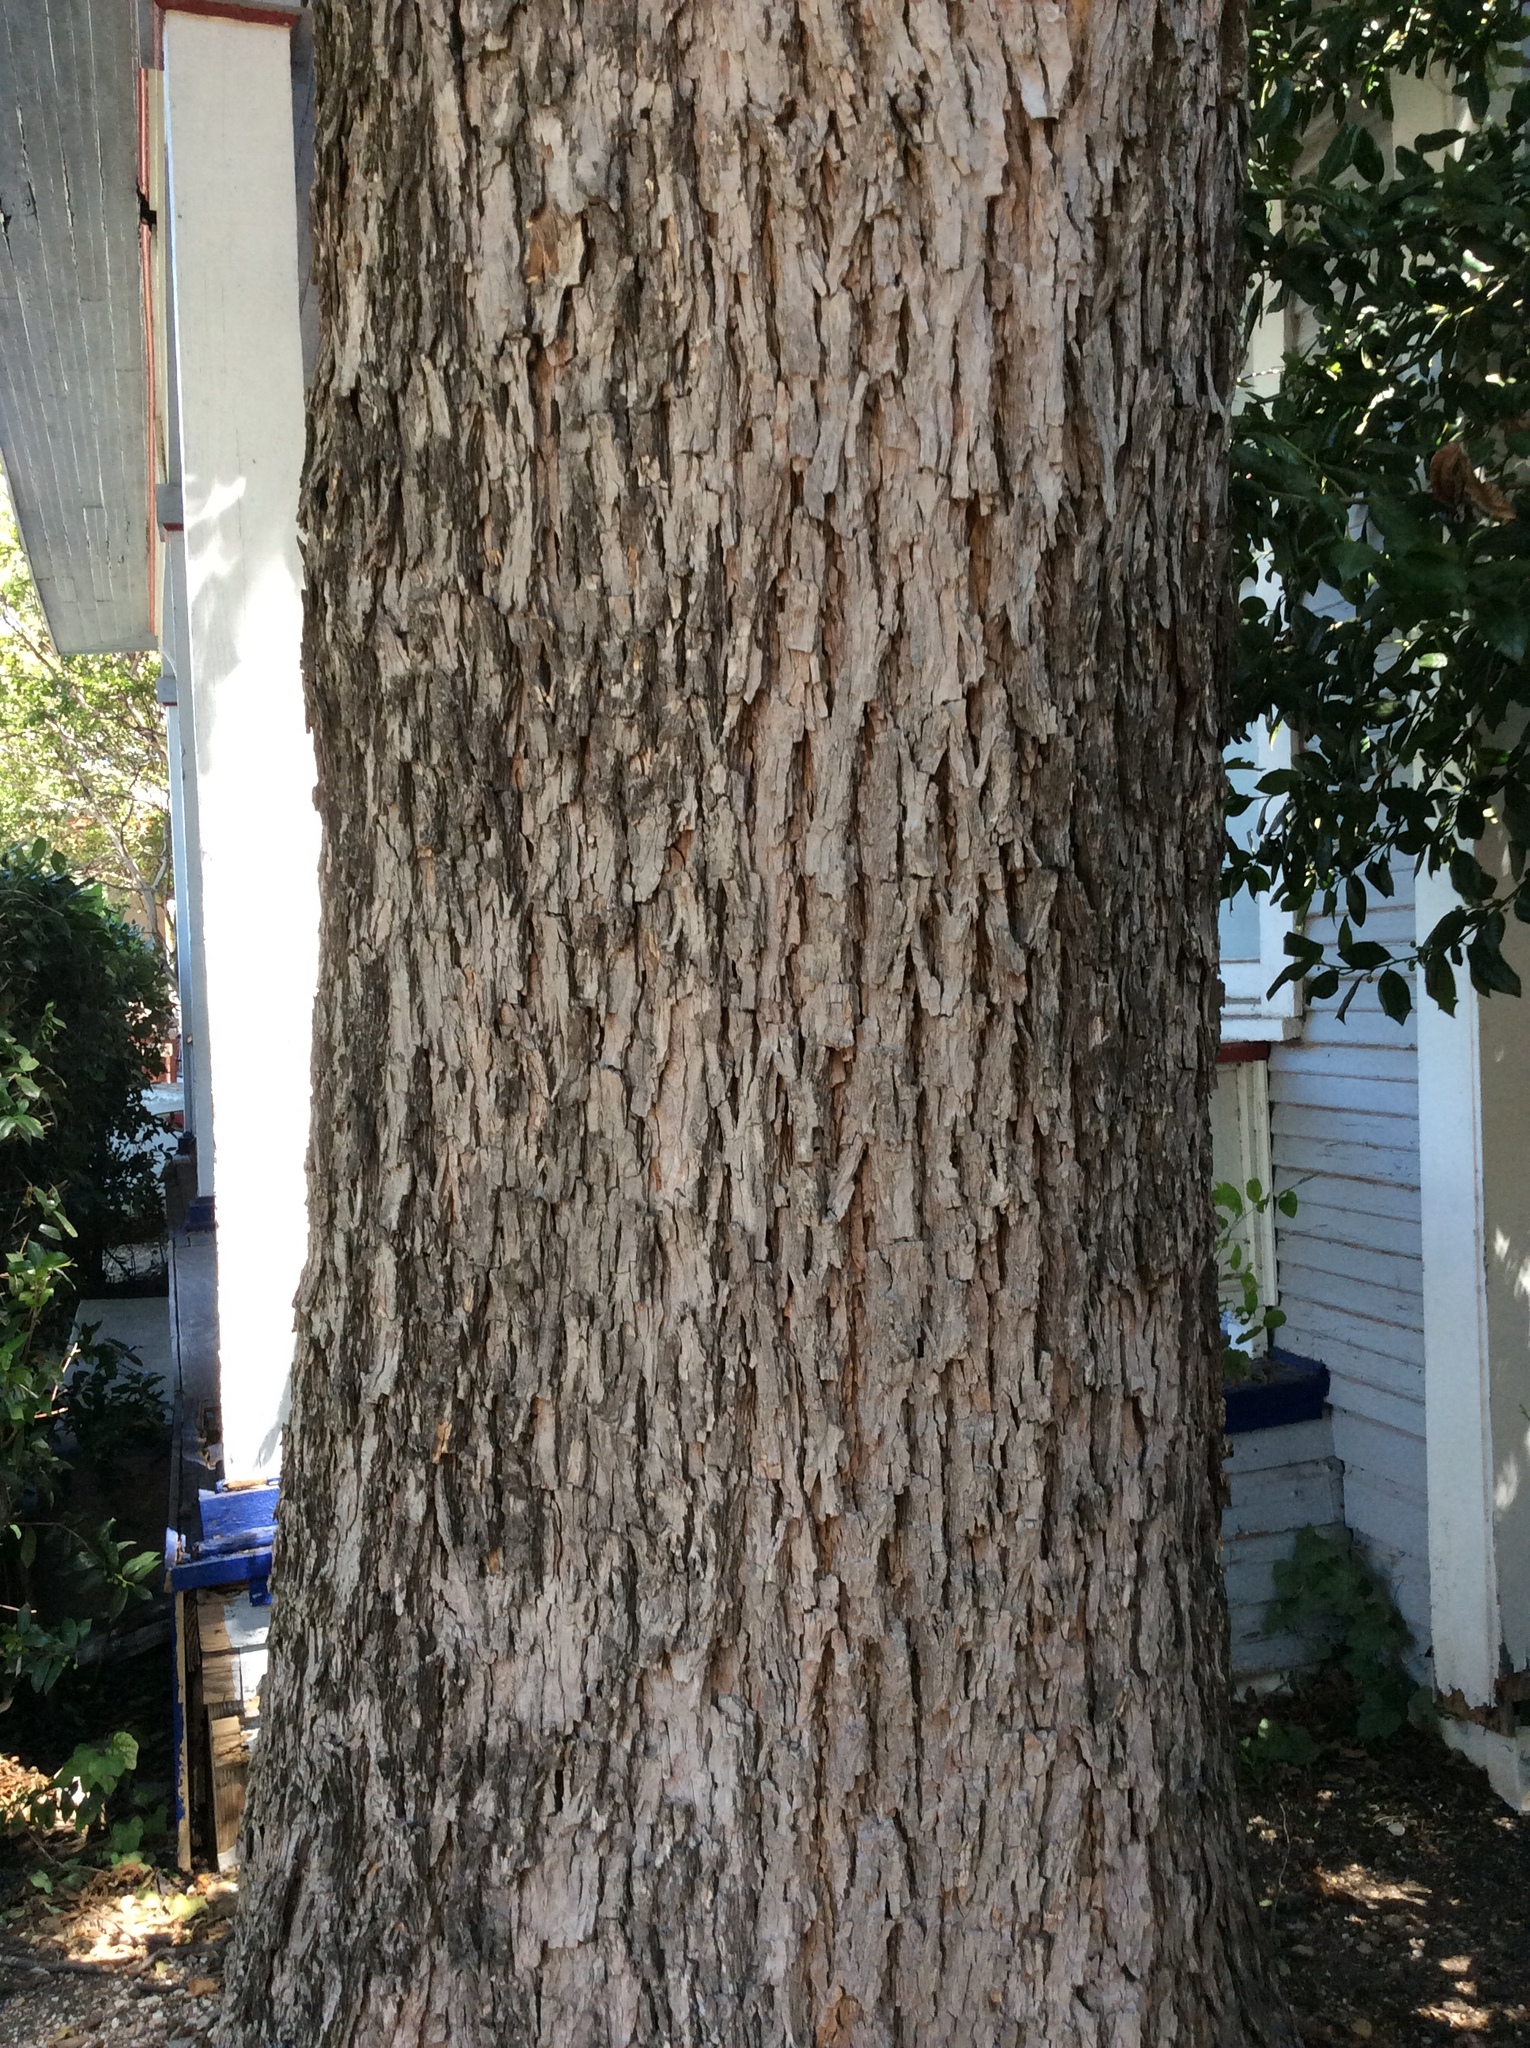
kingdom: Plantae
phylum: Tracheophyta
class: Magnoliopsida
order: Fagales
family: Juglandaceae
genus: Carya
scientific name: Carya illinoinensis
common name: Pecan
